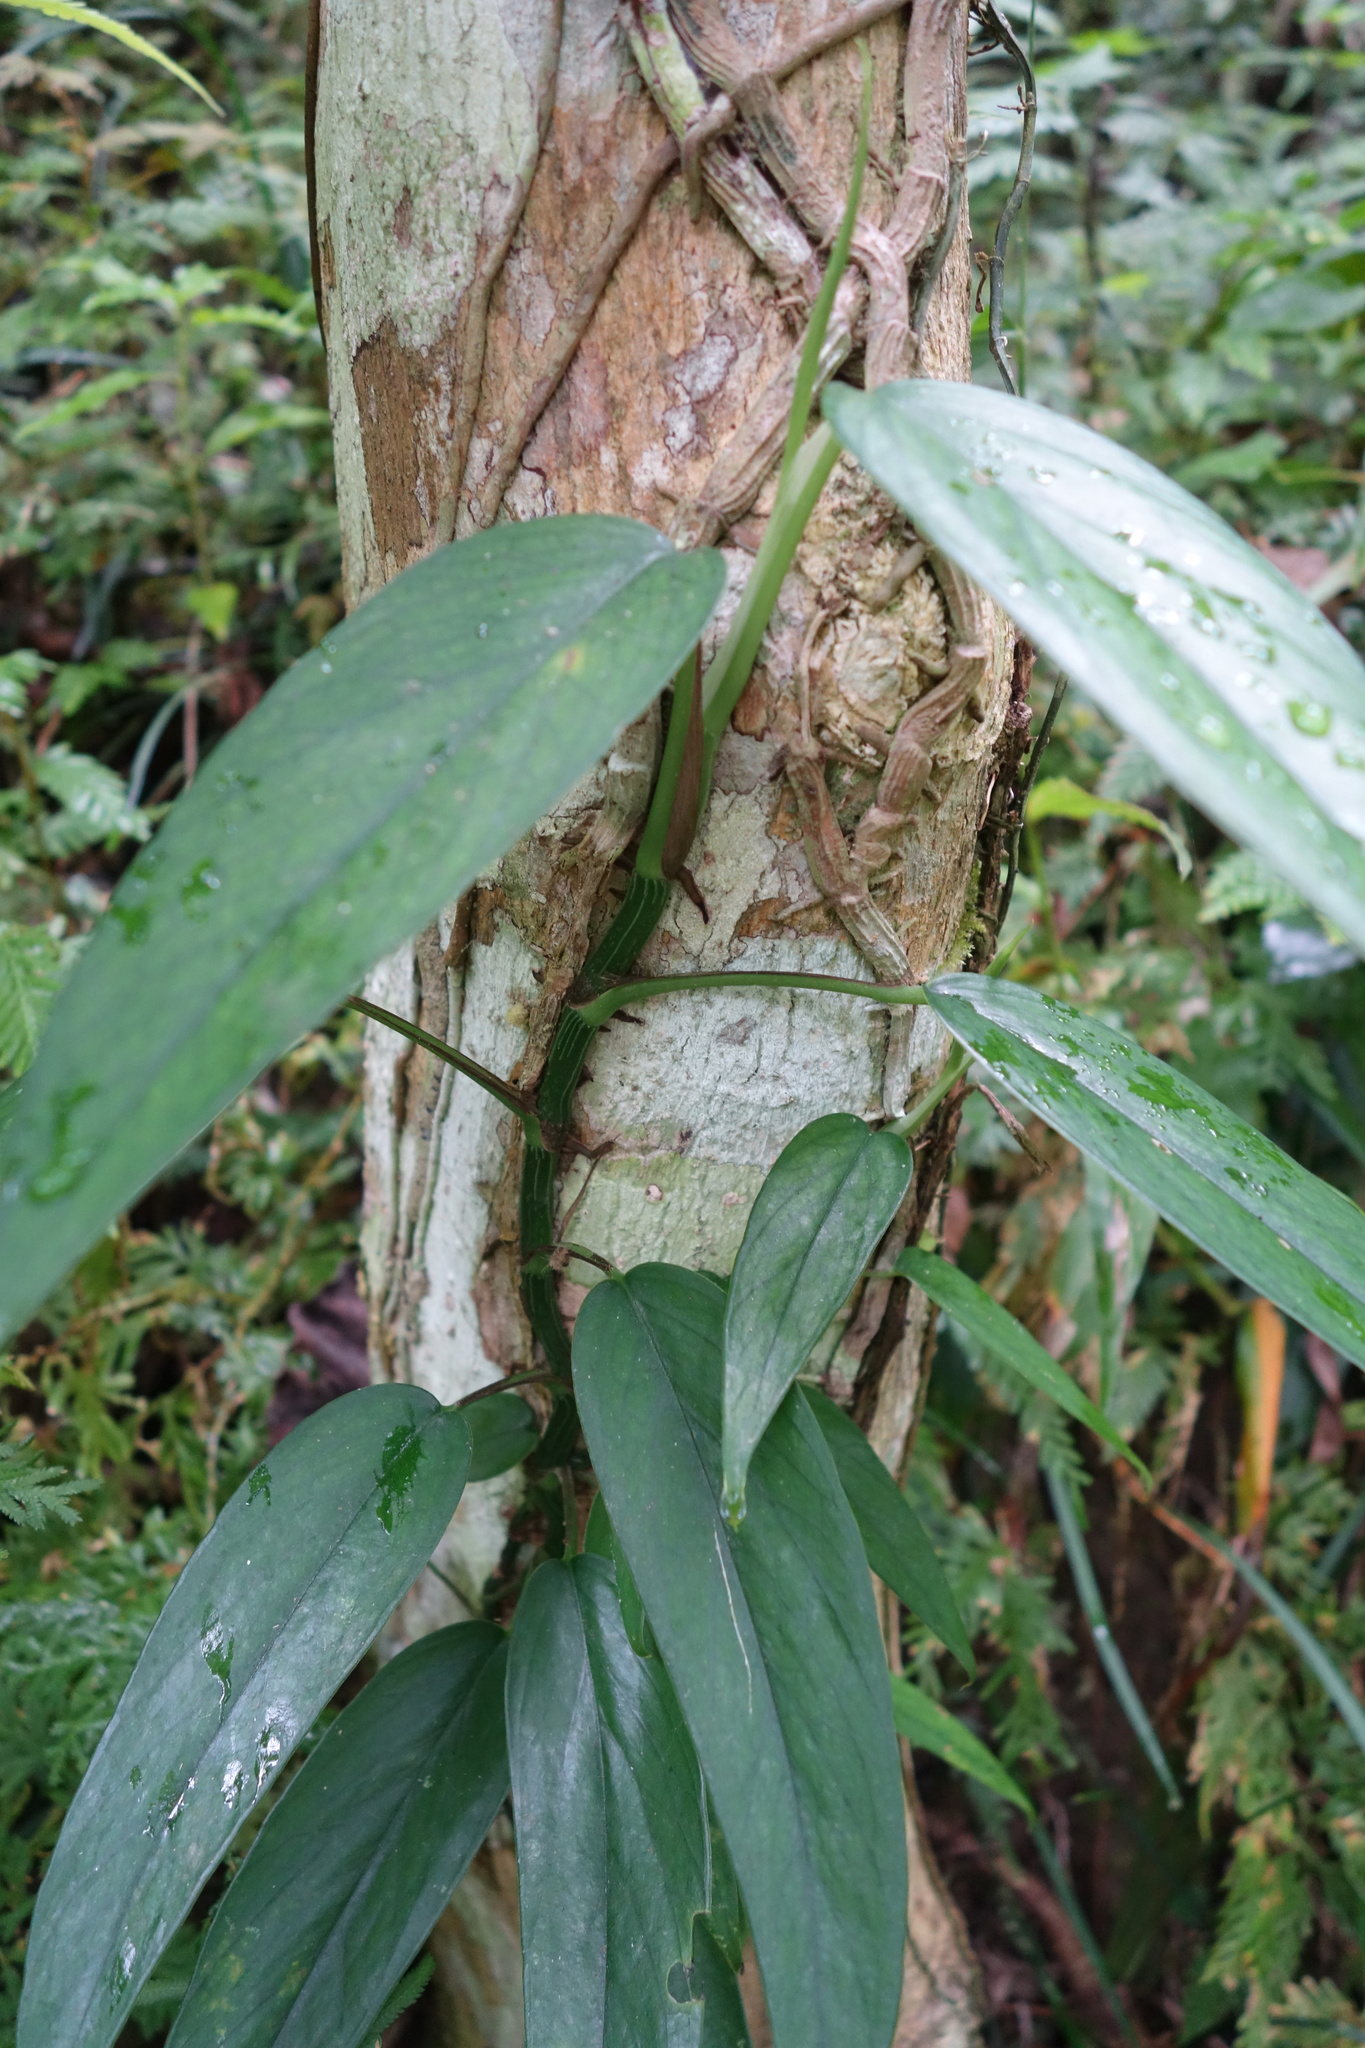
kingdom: Plantae
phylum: Tracheophyta
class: Liliopsida
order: Alismatales
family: Araceae
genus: Epipremnum
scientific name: Epipremnum pinnatum
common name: Centipede tongavine
